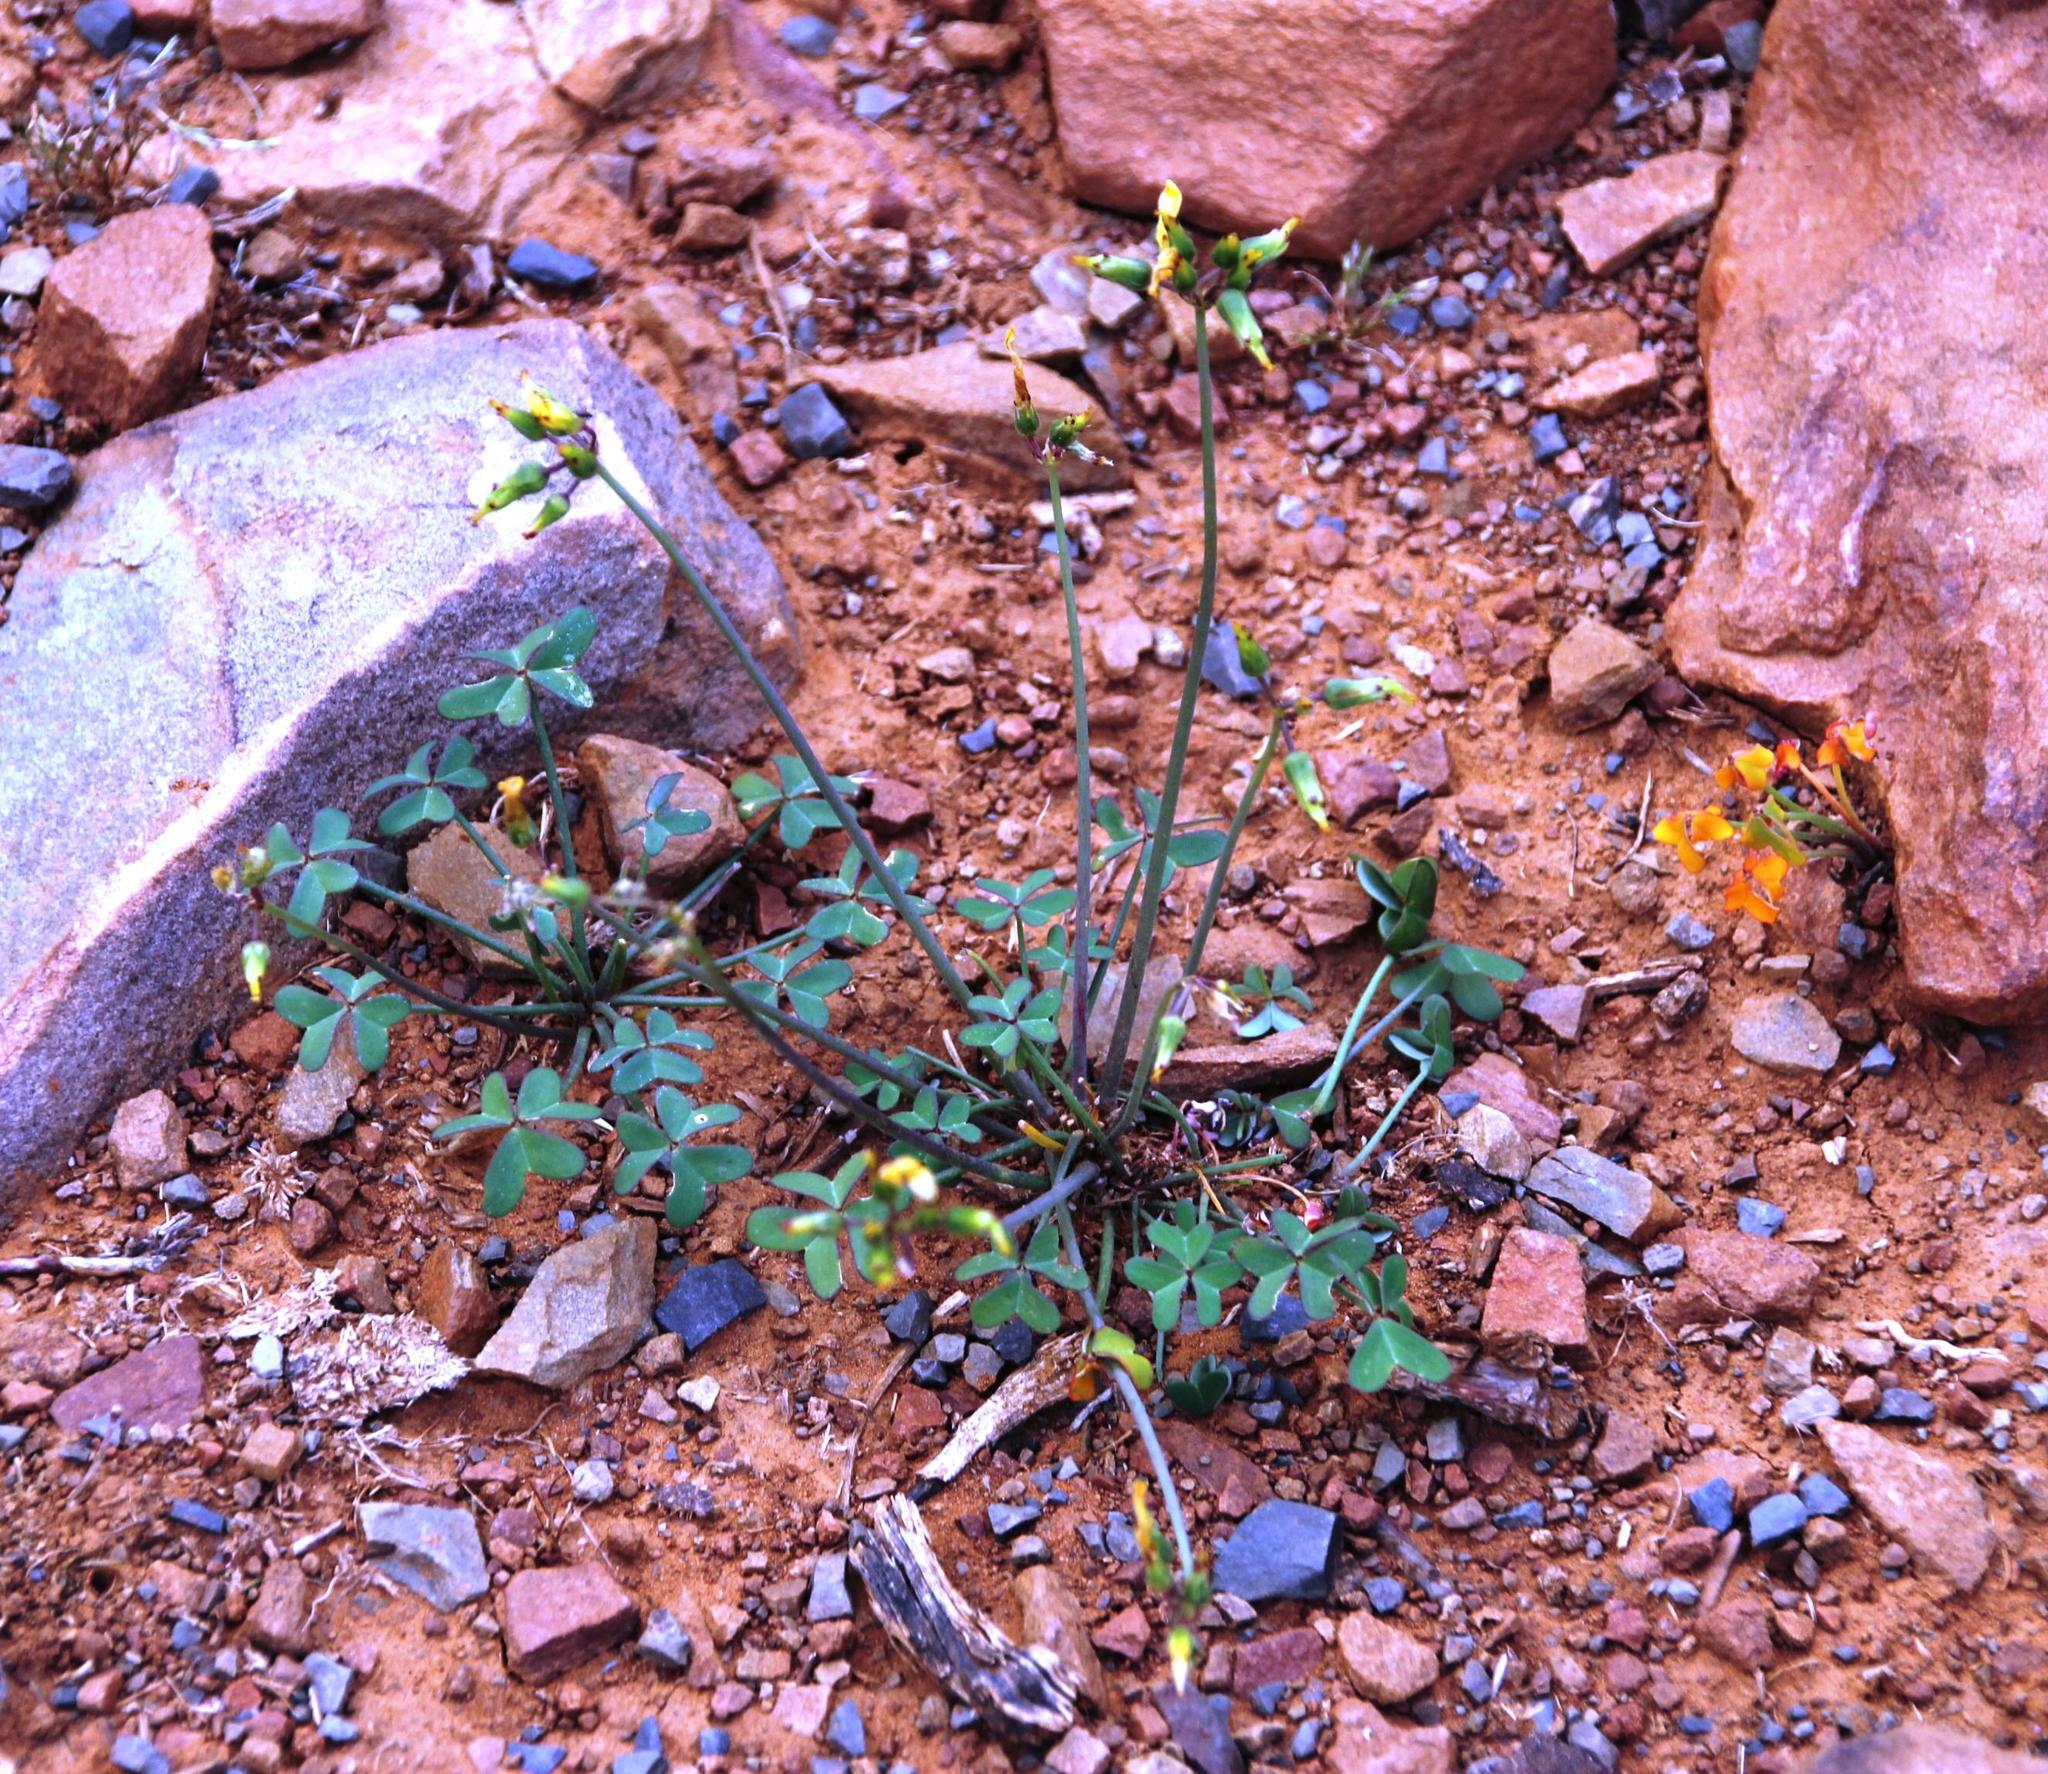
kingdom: Plantae
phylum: Tracheophyta
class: Magnoliopsida
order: Oxalidales
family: Oxalidaceae
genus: Oxalis
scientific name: Oxalis pes-caprae
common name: Bermuda-buttercup
